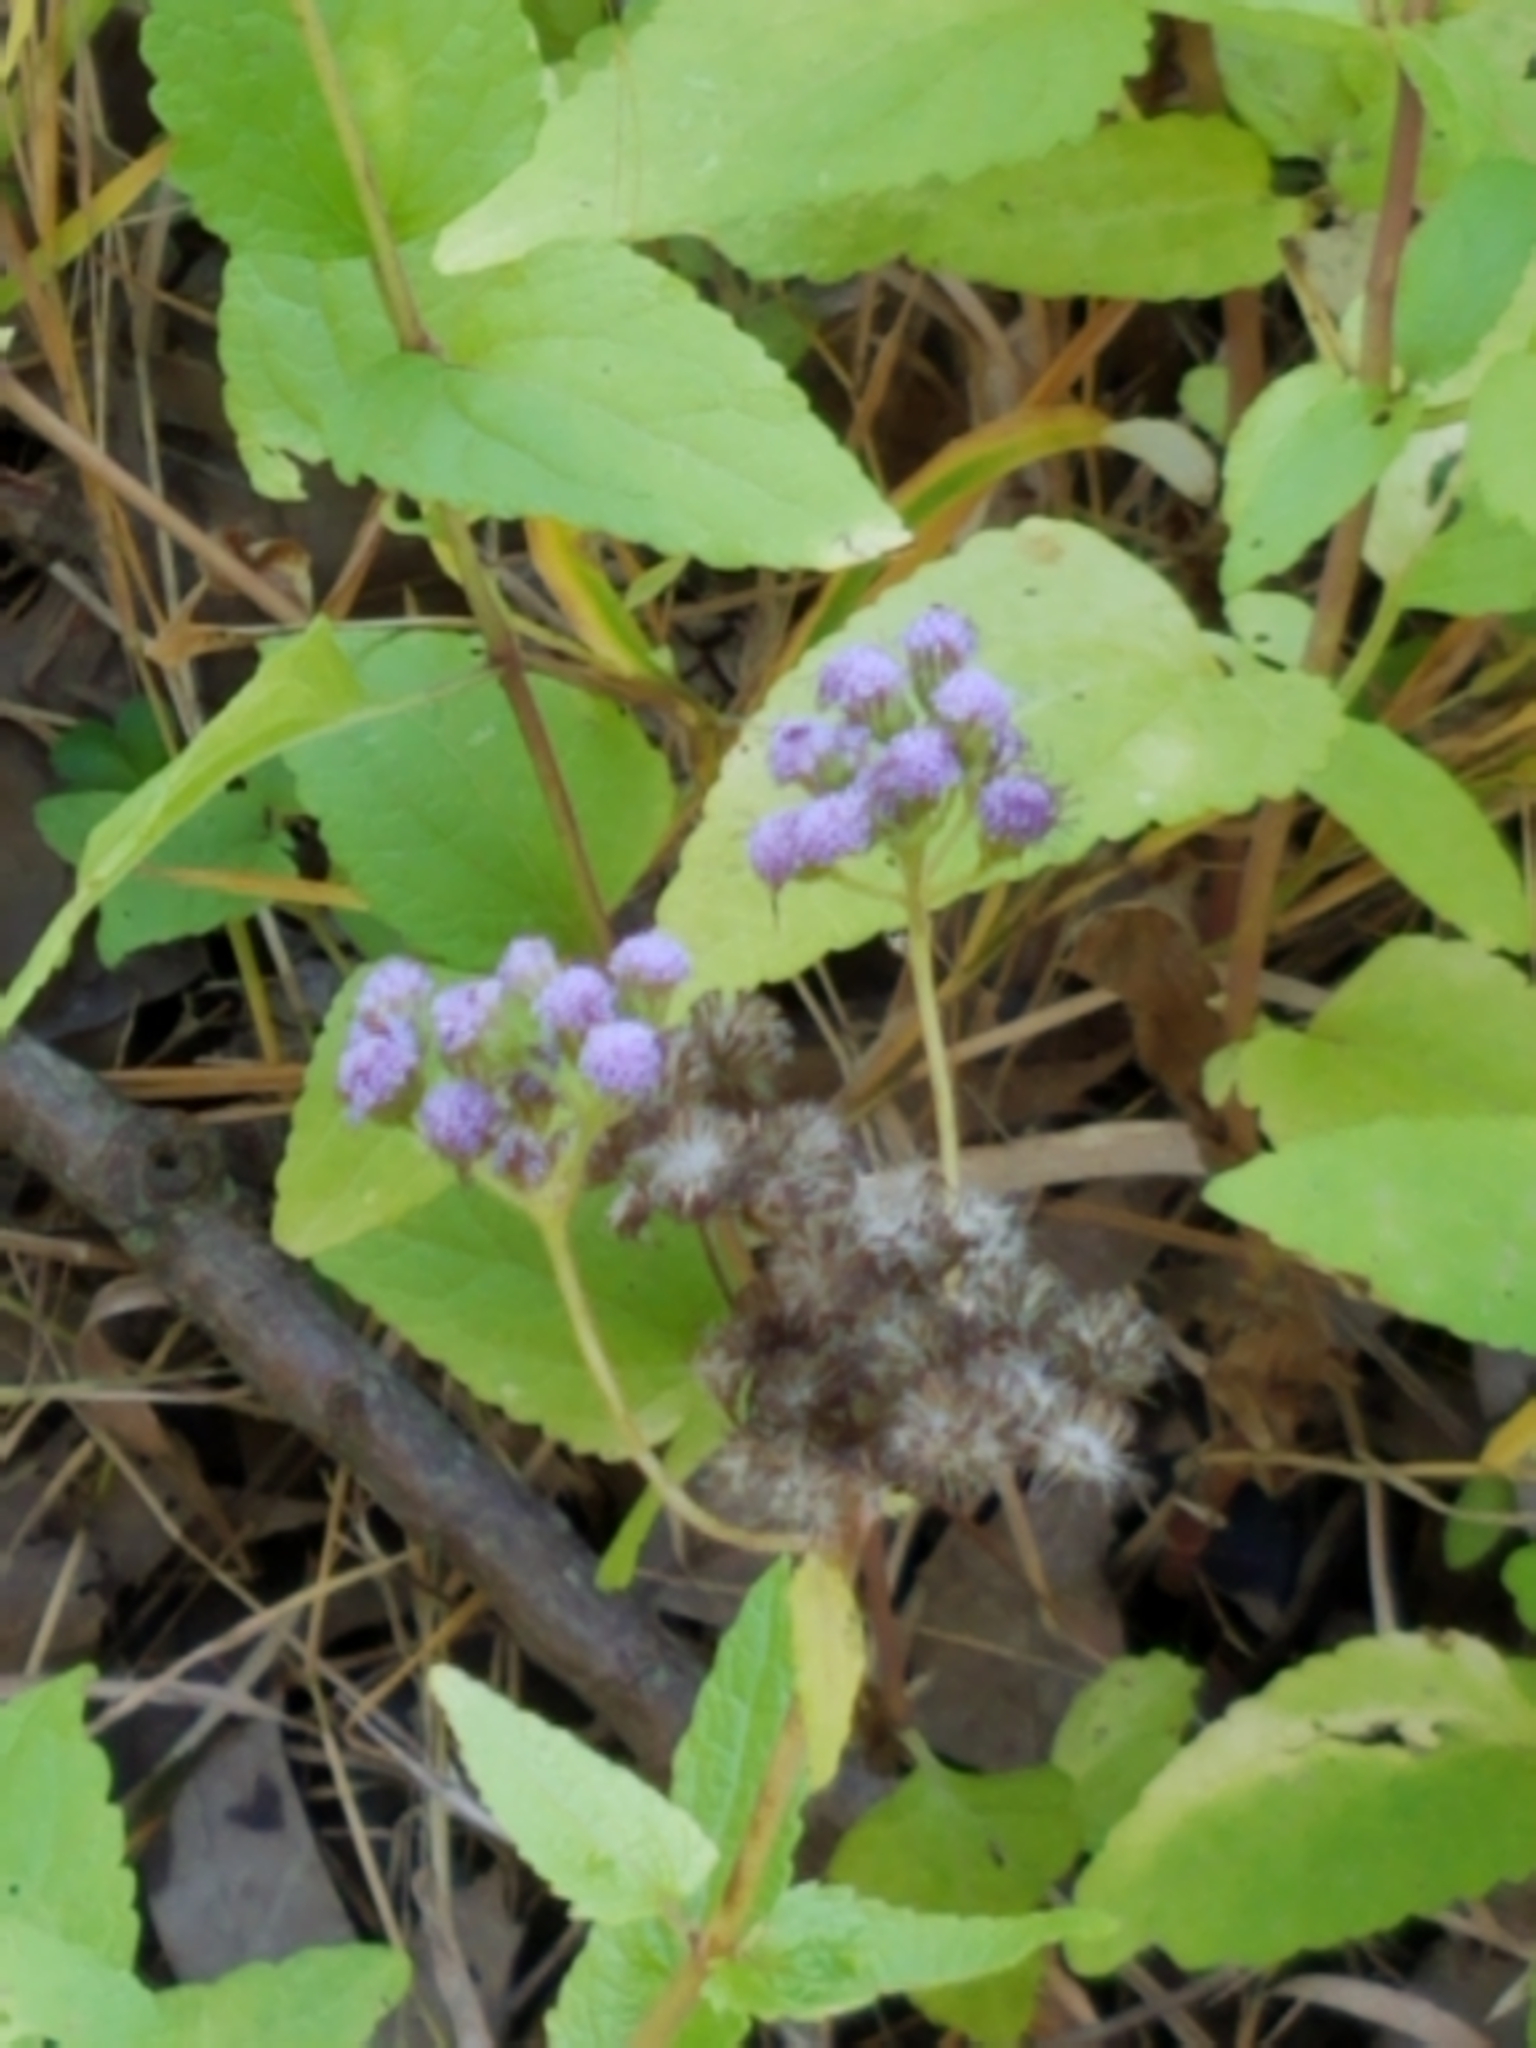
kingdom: Plantae
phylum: Tracheophyta
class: Magnoliopsida
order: Asterales
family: Asteraceae
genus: Conoclinium
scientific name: Conoclinium coelestinum
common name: Blue mistflower
